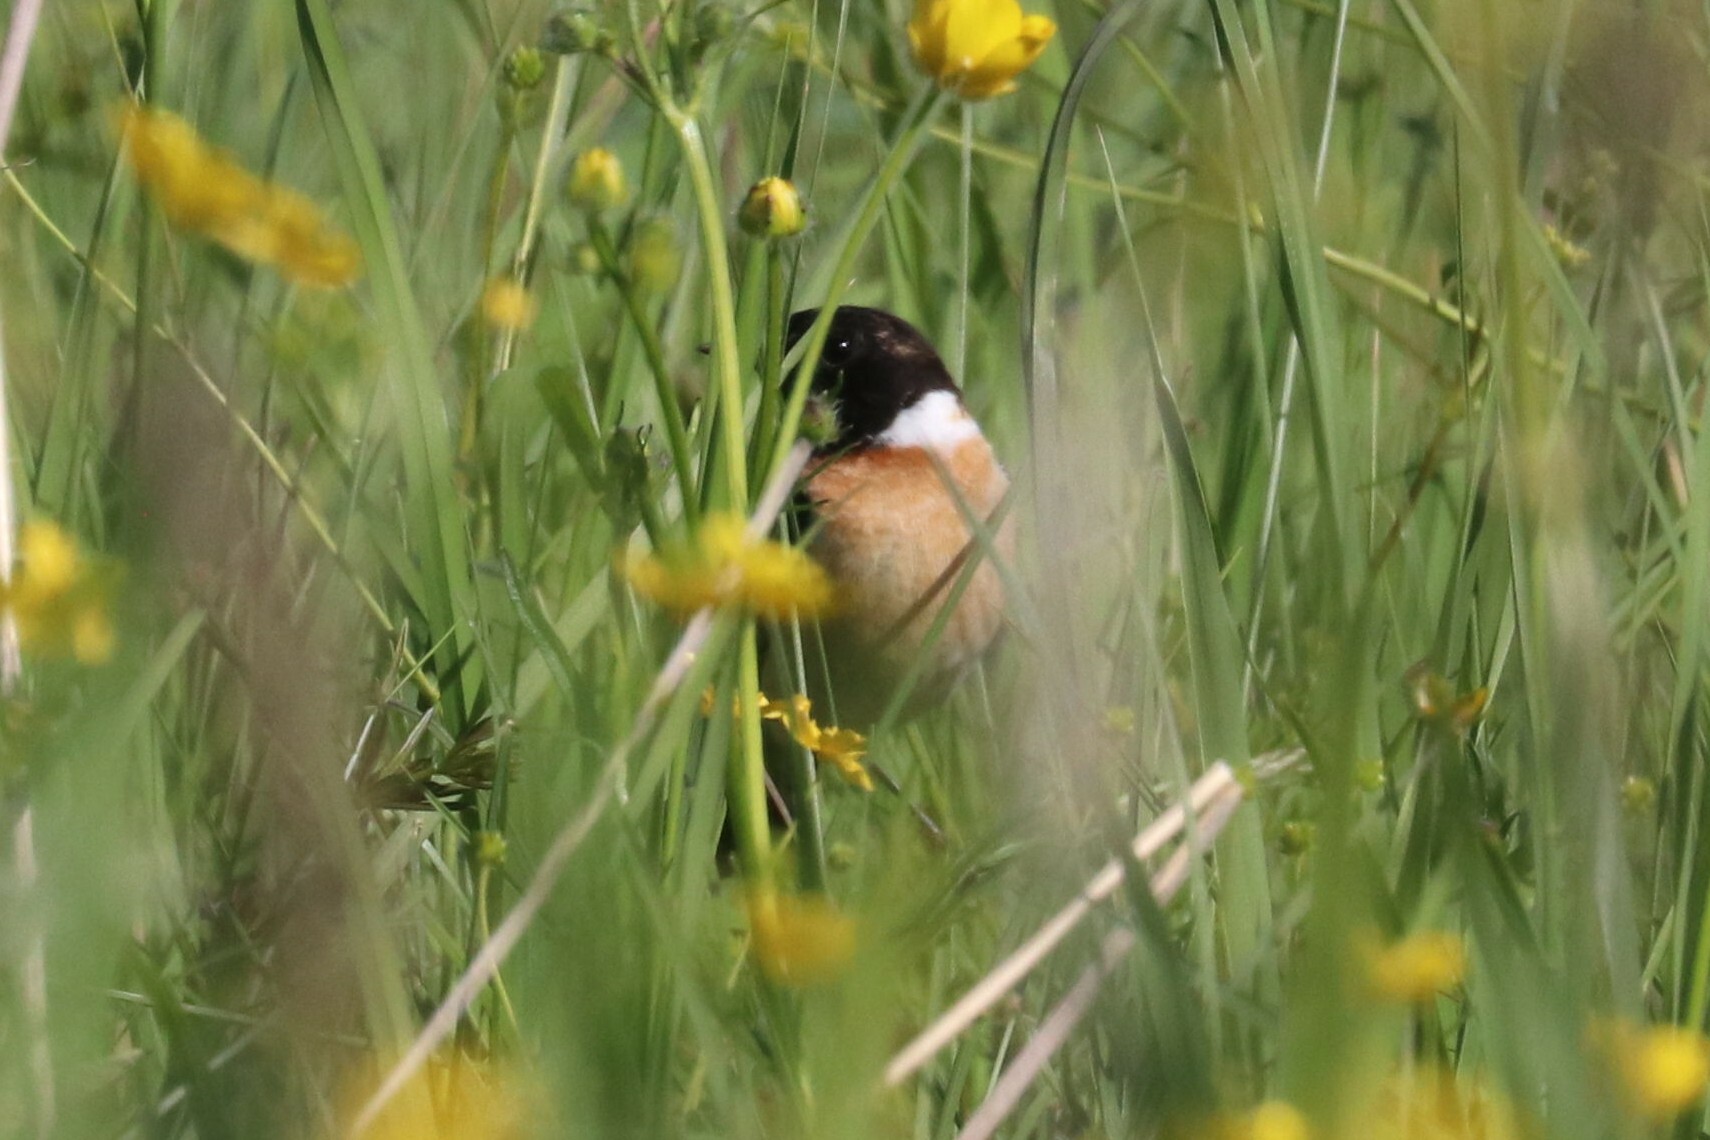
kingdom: Animalia
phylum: Chordata
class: Aves
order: Passeriformes
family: Muscicapidae
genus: Saxicola
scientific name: Saxicola maurus
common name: Siberian stonechat
